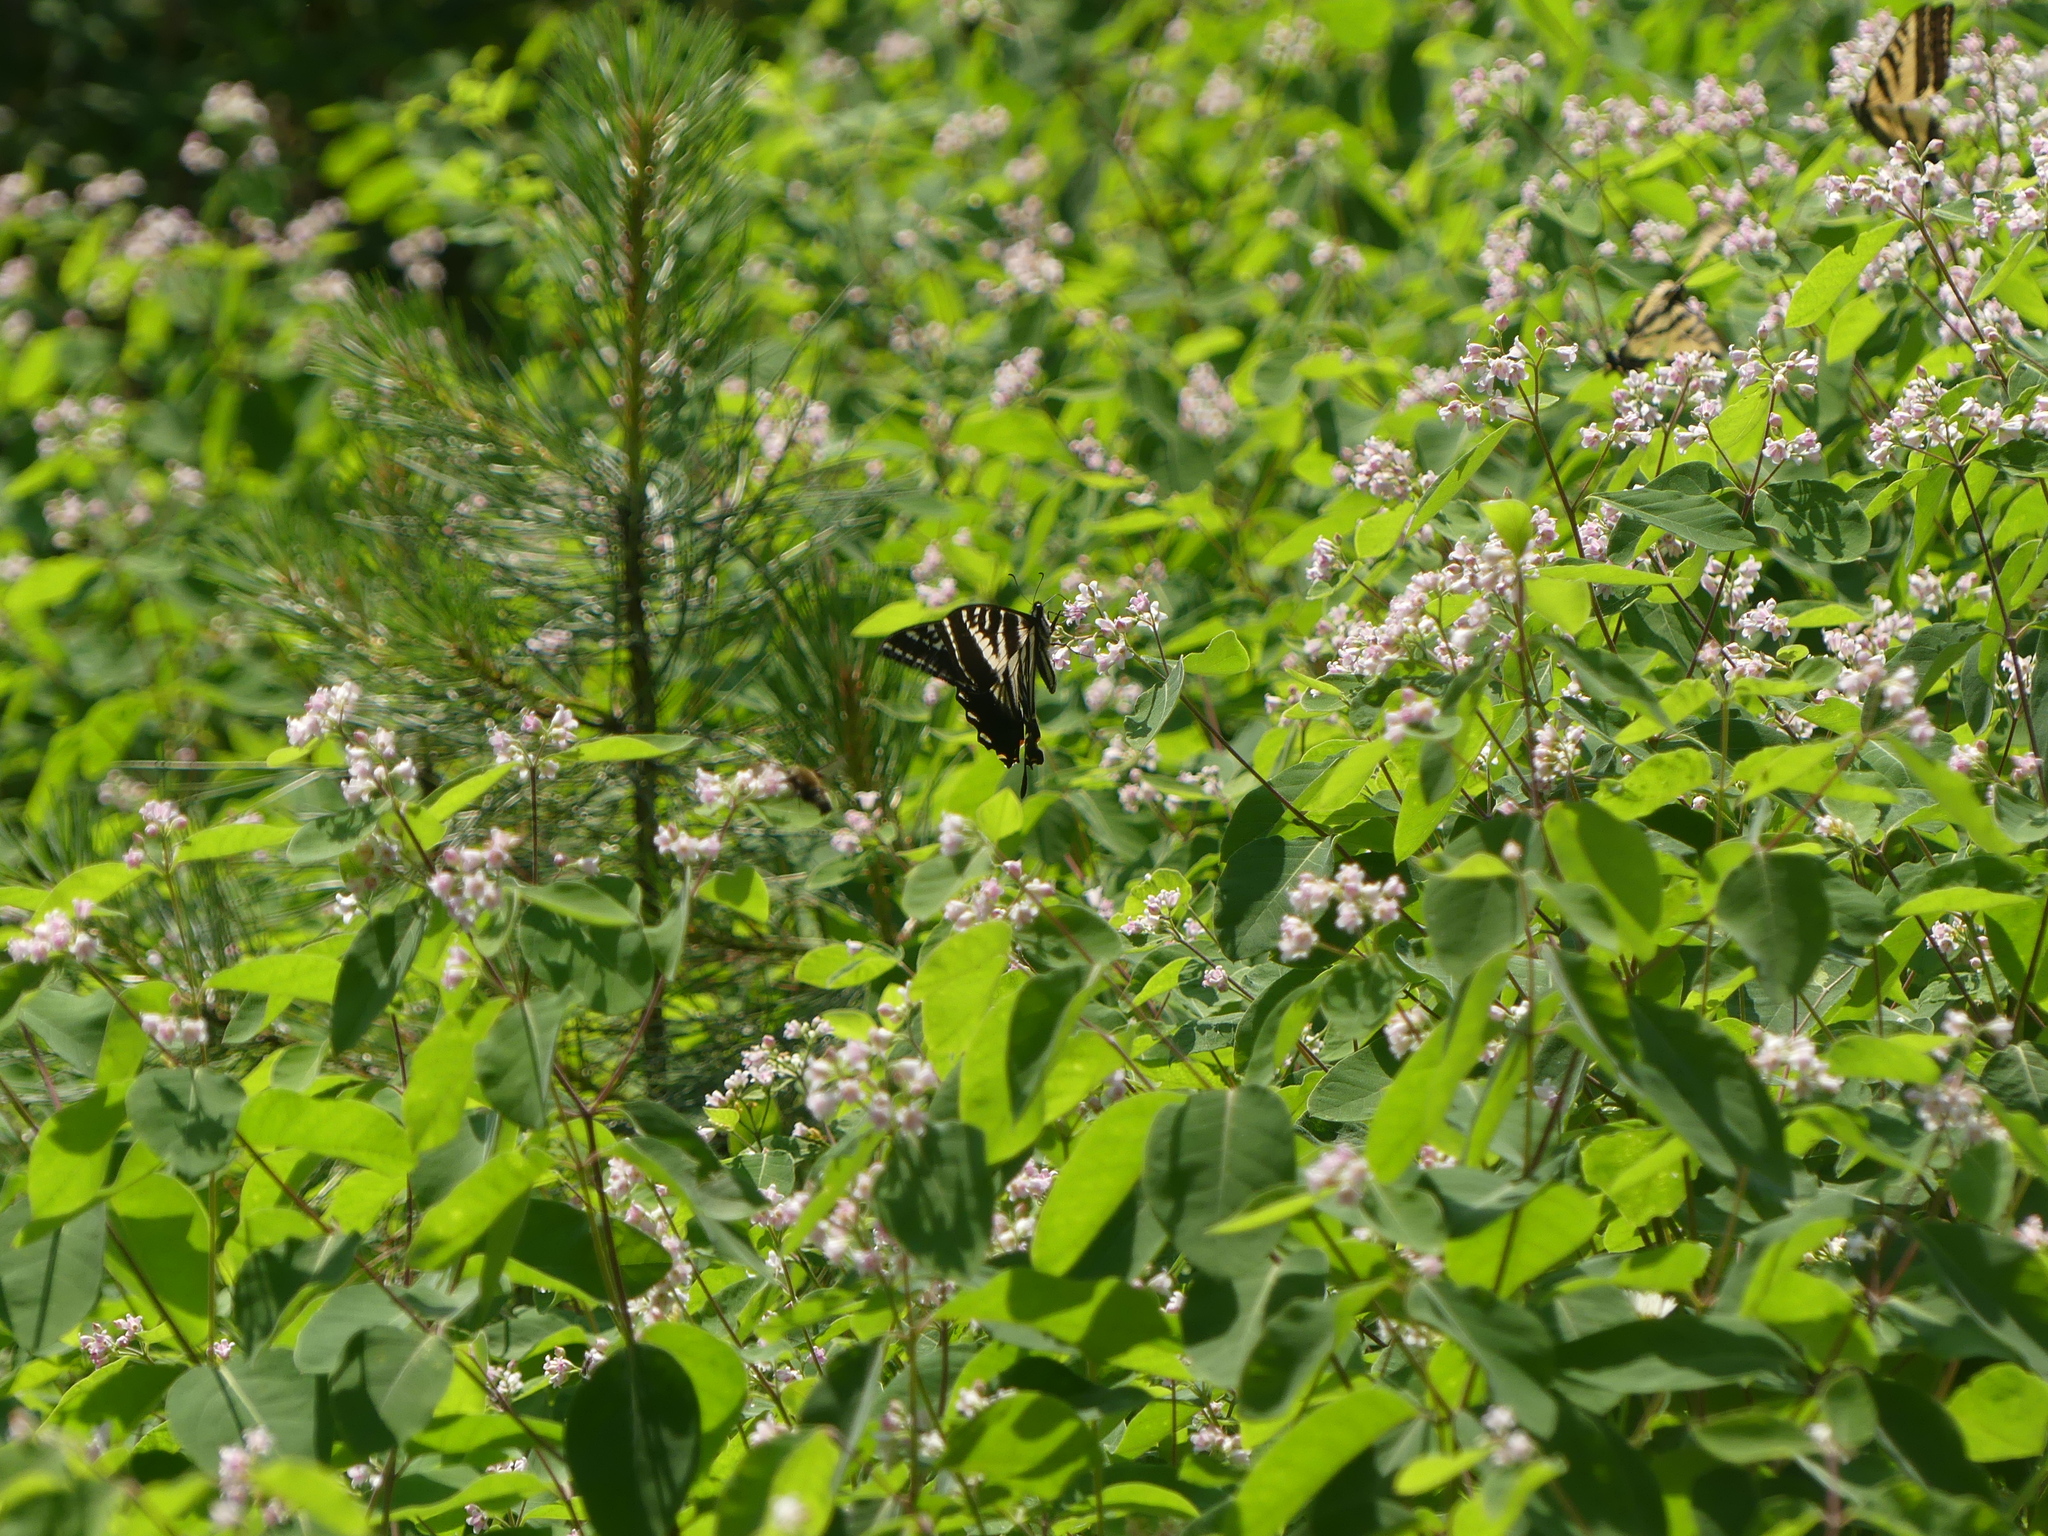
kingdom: Animalia
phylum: Arthropoda
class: Insecta
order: Lepidoptera
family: Papilionidae
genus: Papilio
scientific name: Papilio eurymedon
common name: Pale tiger swallowtail
